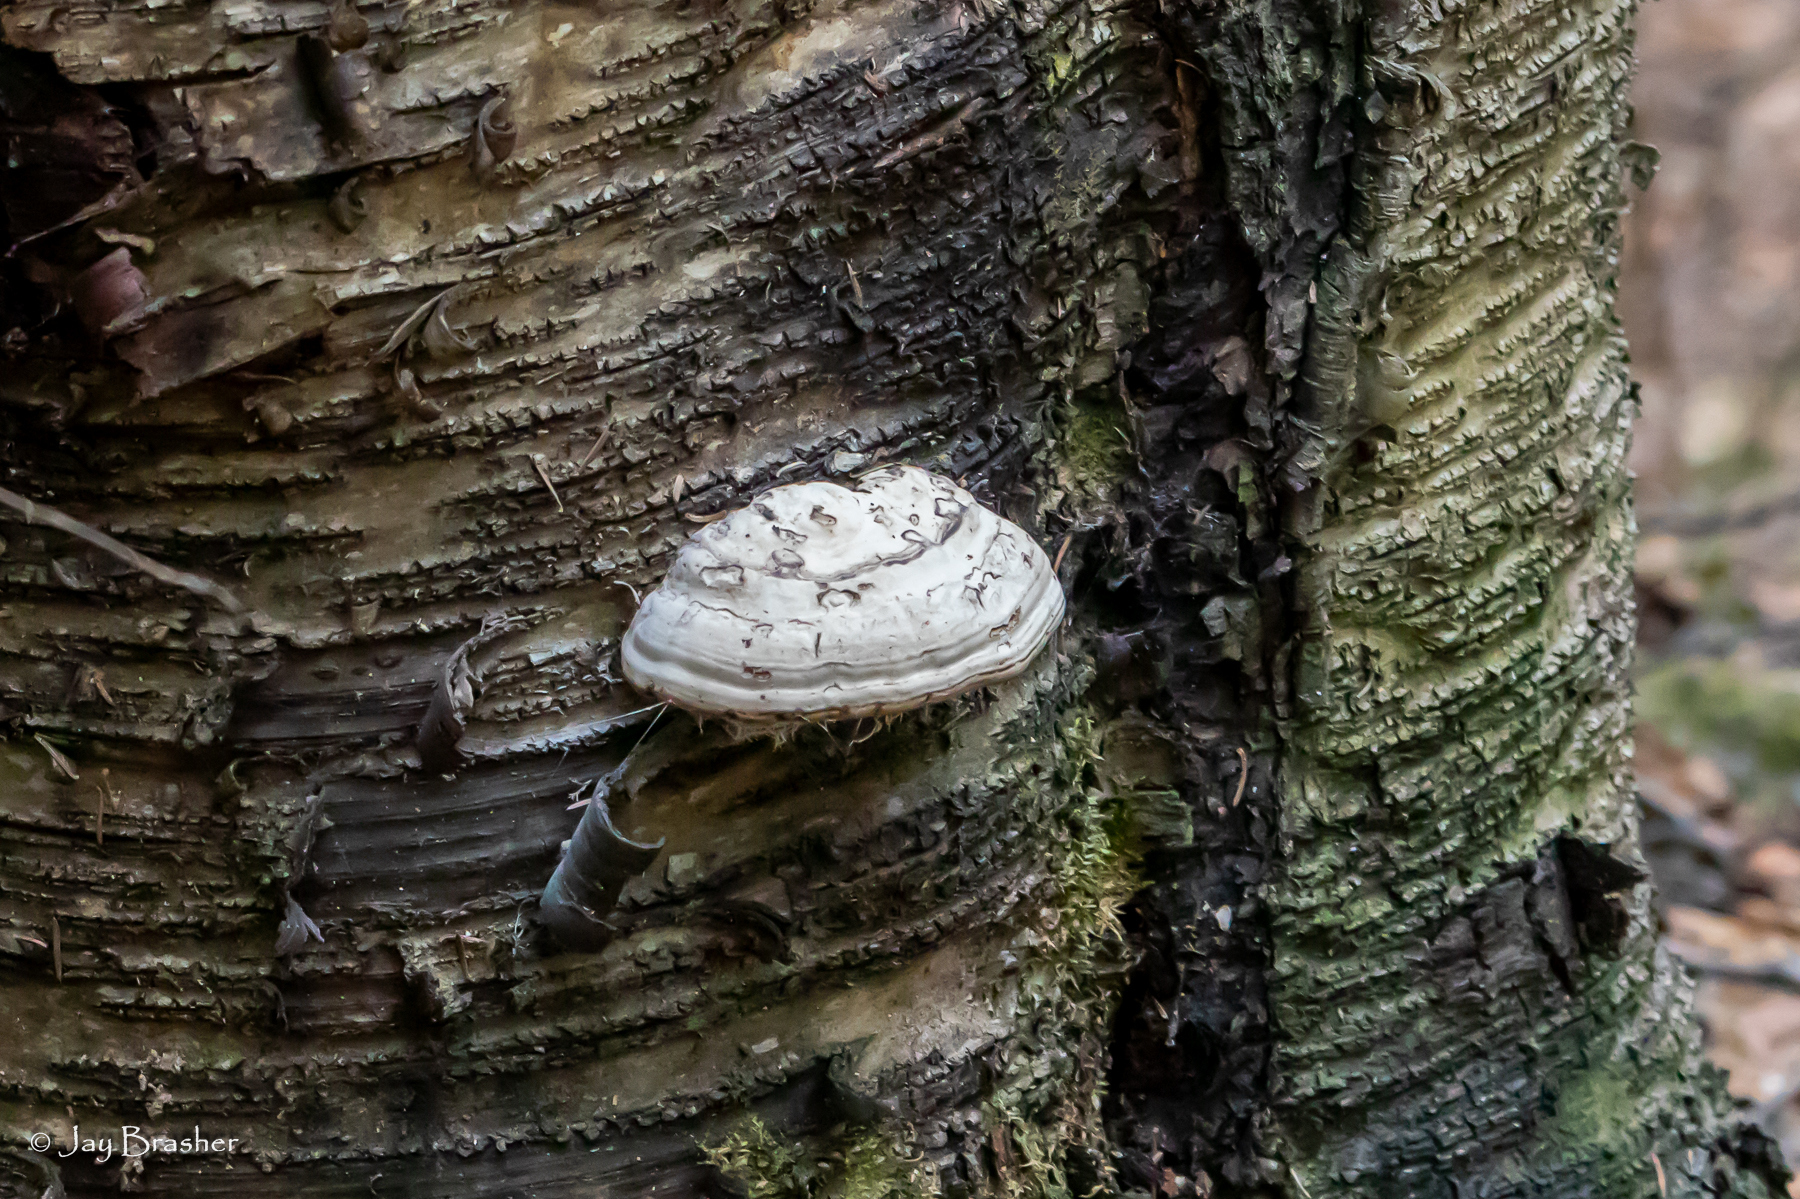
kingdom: Fungi
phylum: Basidiomycota
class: Agaricomycetes
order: Polyporales
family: Polyporaceae
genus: Fomes
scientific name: Fomes fomentarius
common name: Hoof fungus
